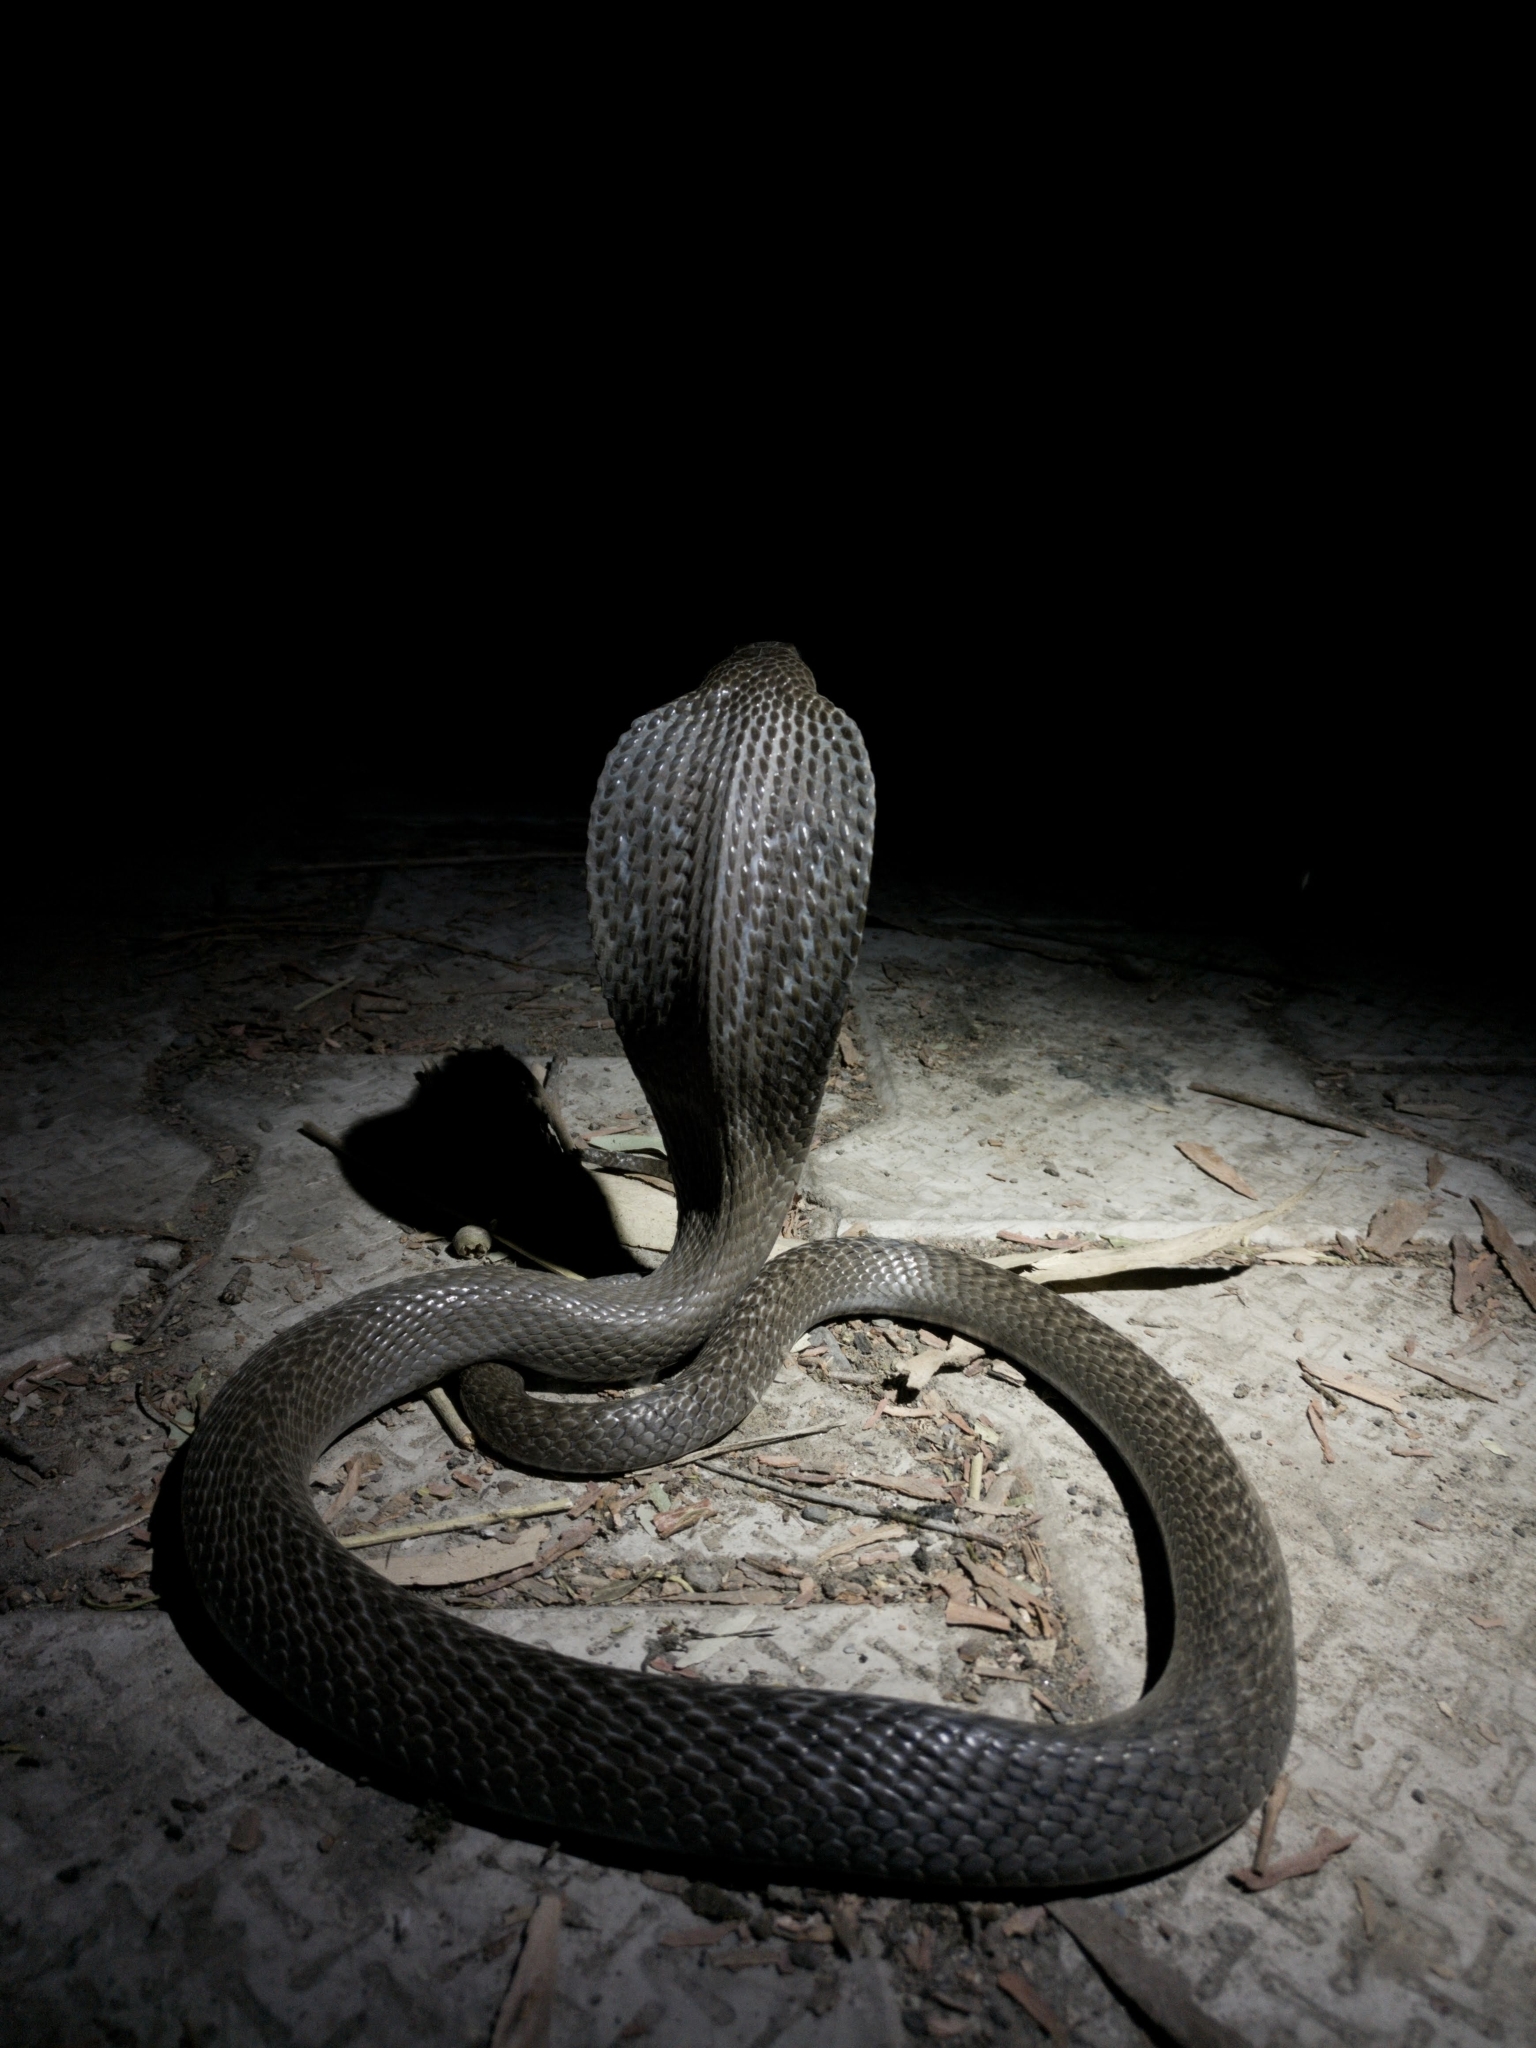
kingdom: Animalia
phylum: Chordata
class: Squamata
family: Elapidae
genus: Naja
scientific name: Naja naja
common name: Indian cobra
